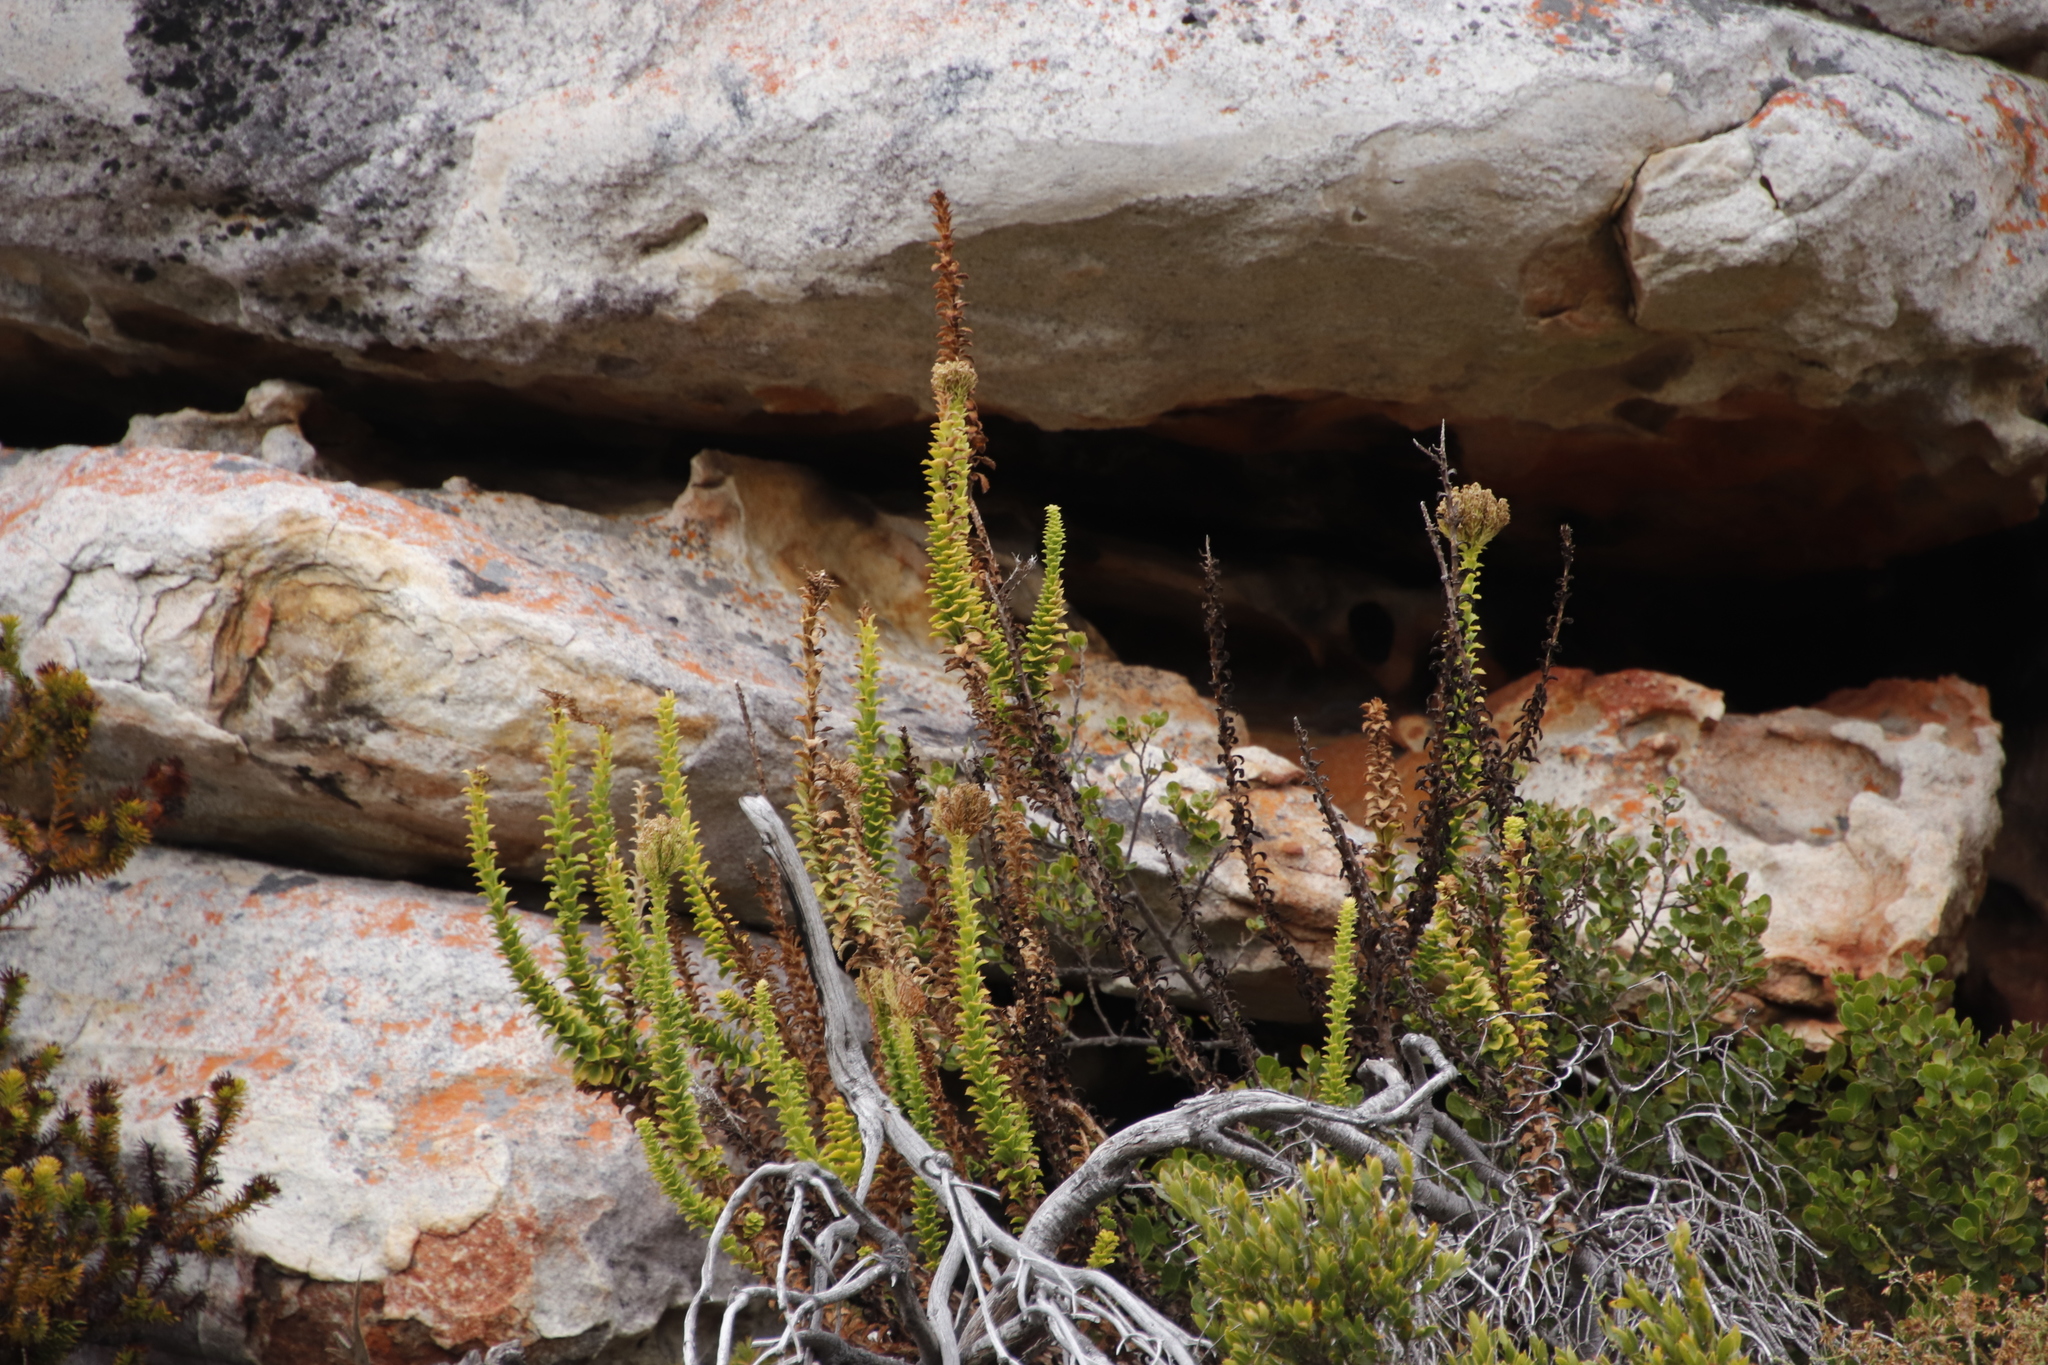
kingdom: Plantae
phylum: Tracheophyta
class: Magnoliopsida
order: Lamiales
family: Scrophulariaceae
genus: Pseudoselago
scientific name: Pseudoselago serrata
